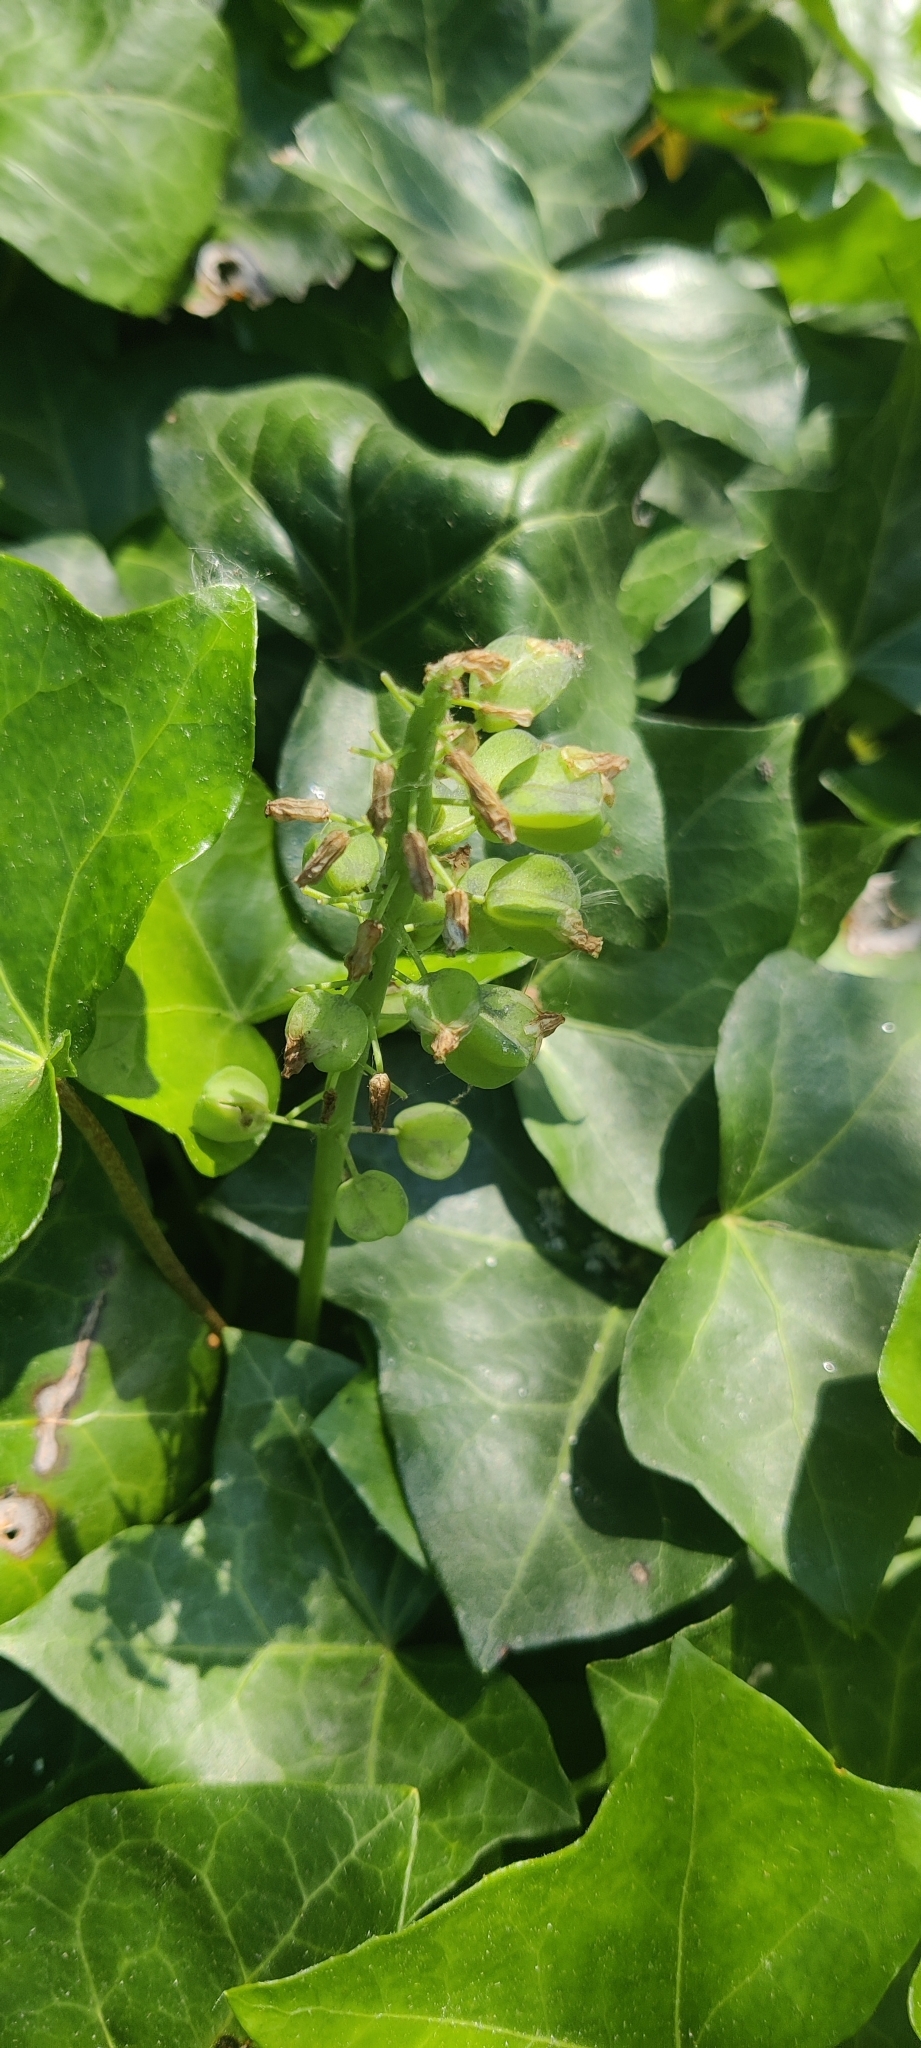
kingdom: Plantae
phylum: Tracheophyta
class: Magnoliopsida
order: Ranunculales
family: Ranunculaceae
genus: Caltha
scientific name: Caltha palustris
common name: Marsh marigold
